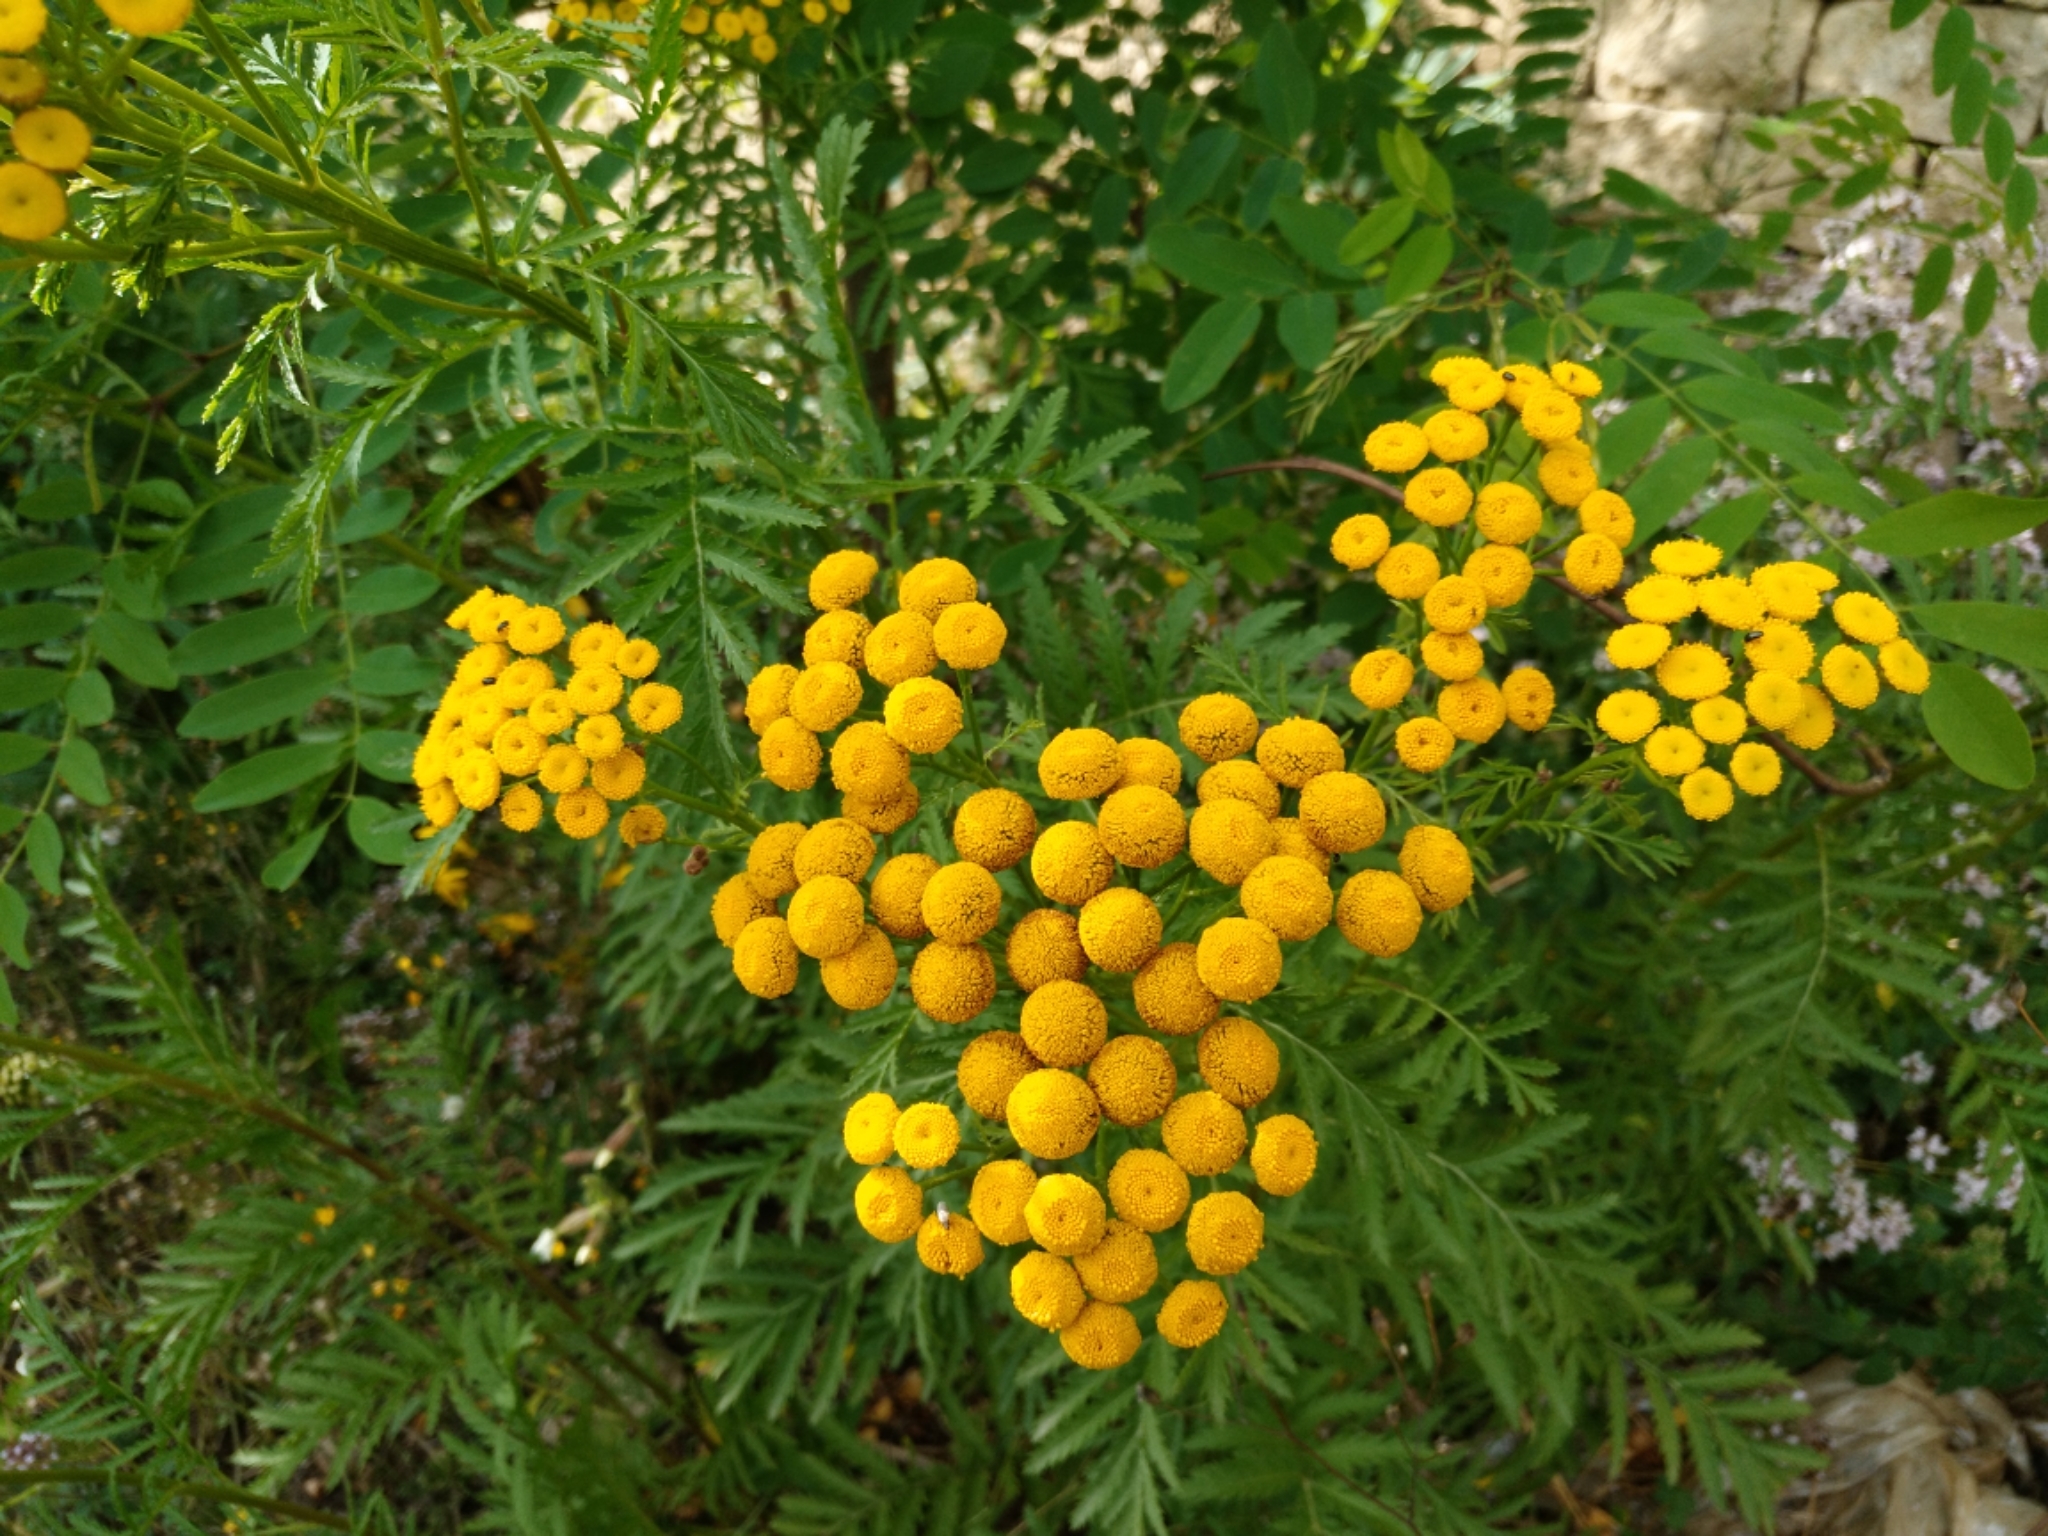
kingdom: Plantae
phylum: Tracheophyta
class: Magnoliopsida
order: Asterales
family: Asteraceae
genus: Tanacetum
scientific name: Tanacetum vulgare
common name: Common tansy
